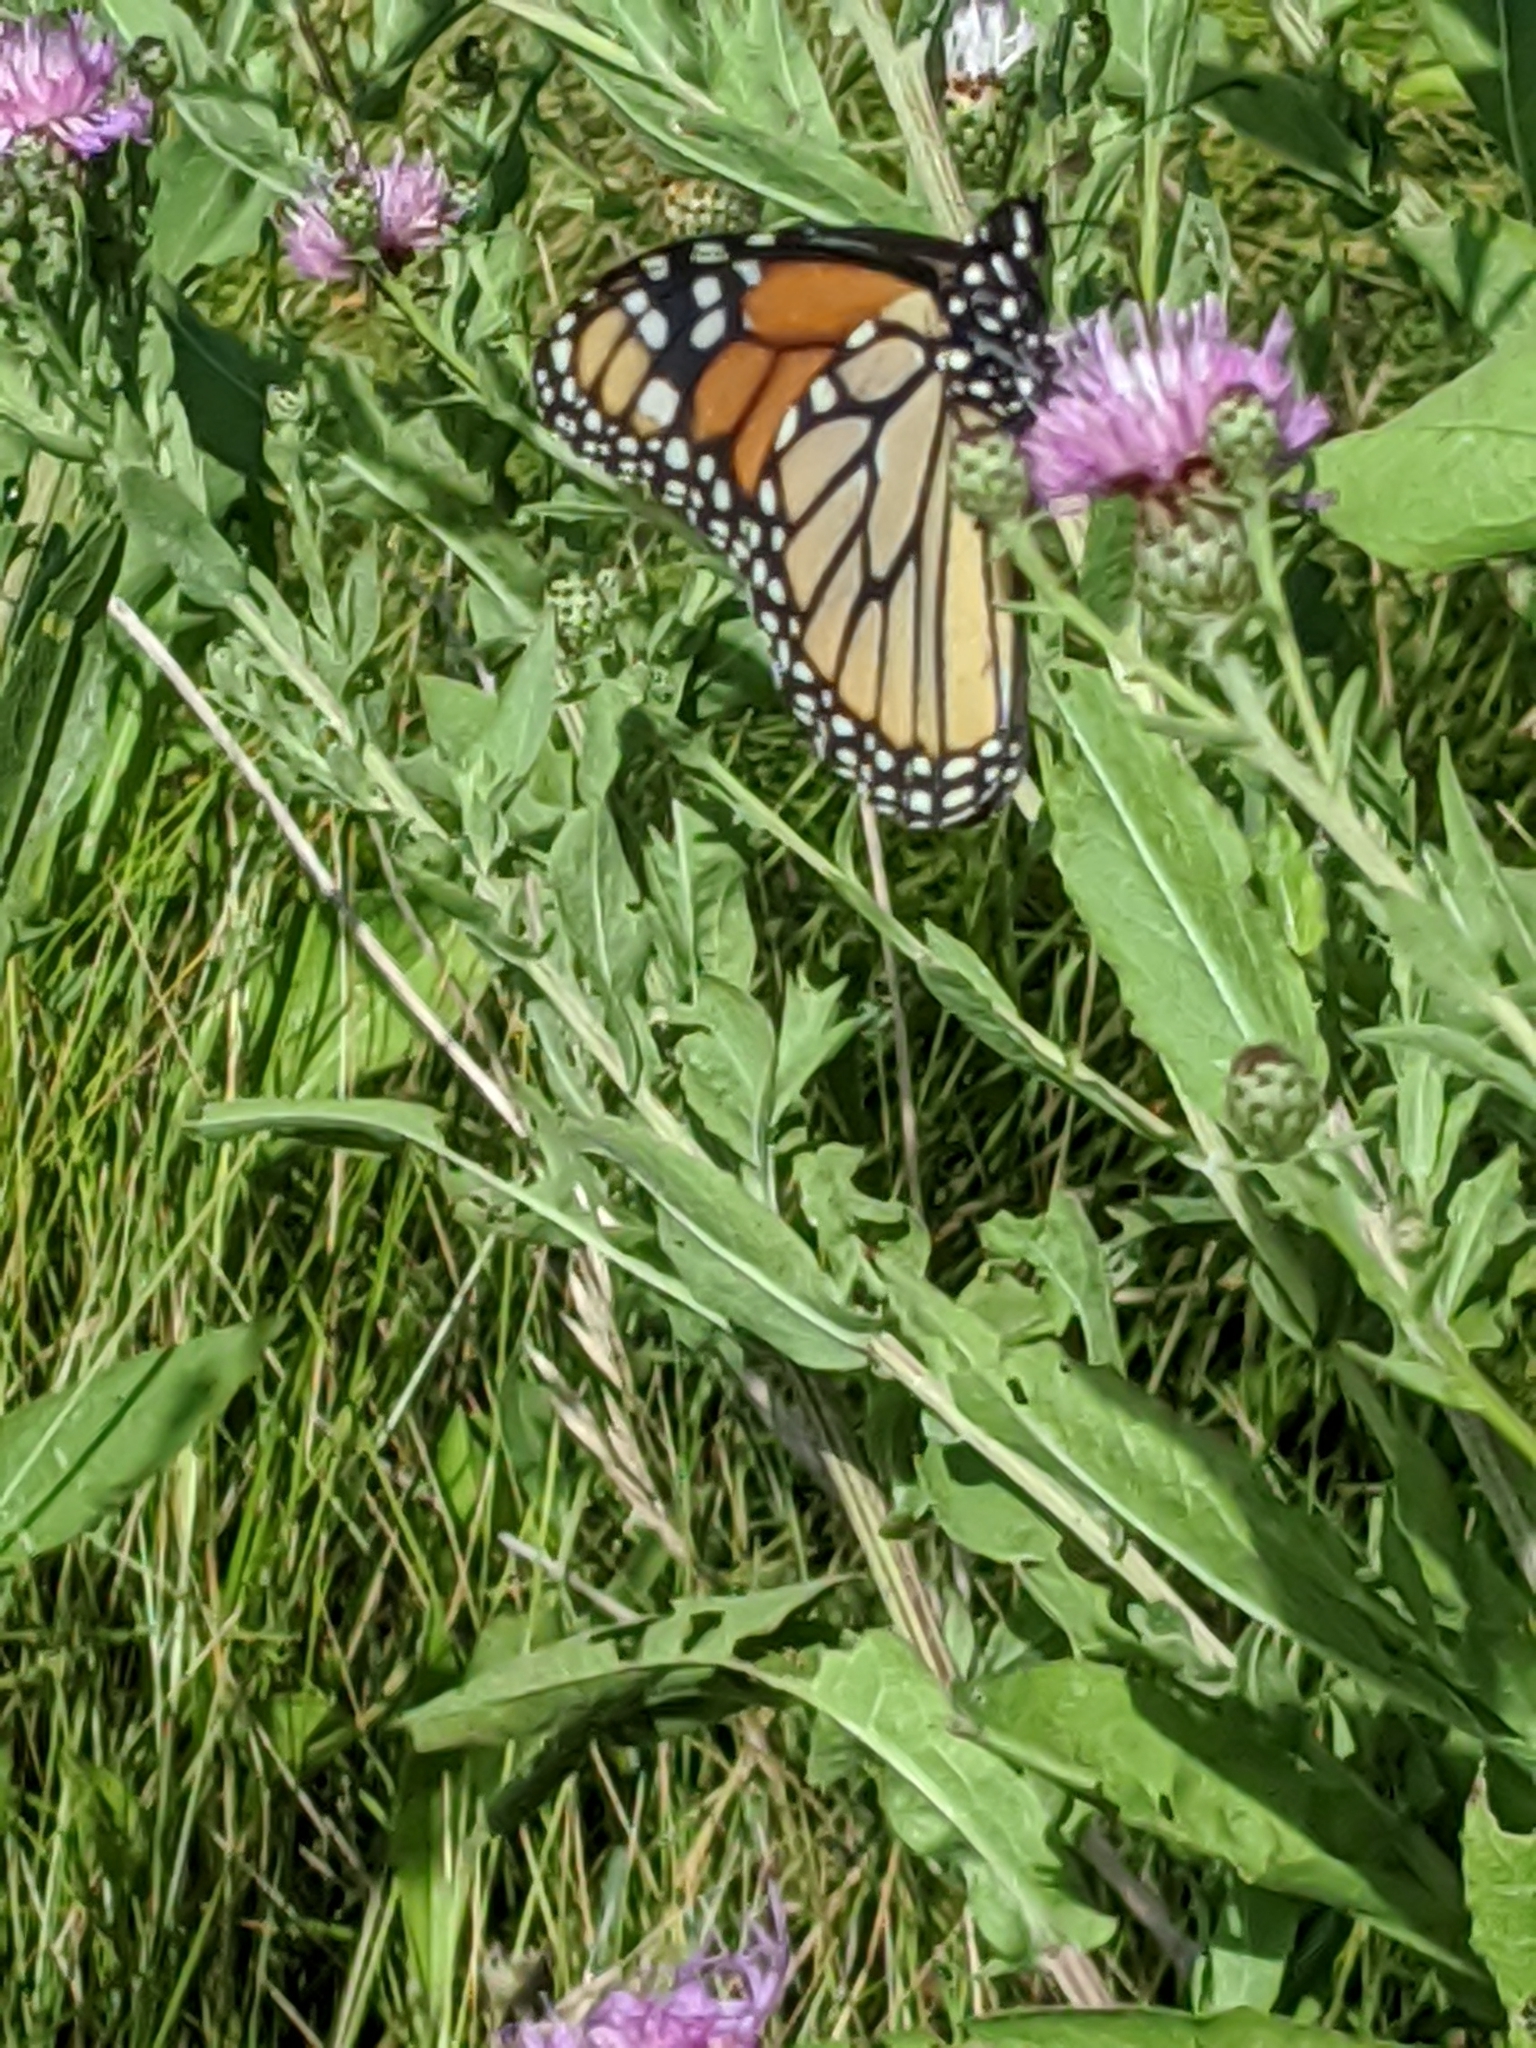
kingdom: Animalia
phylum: Arthropoda
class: Insecta
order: Lepidoptera
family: Nymphalidae
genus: Danaus
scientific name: Danaus plexippus
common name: Monarch
